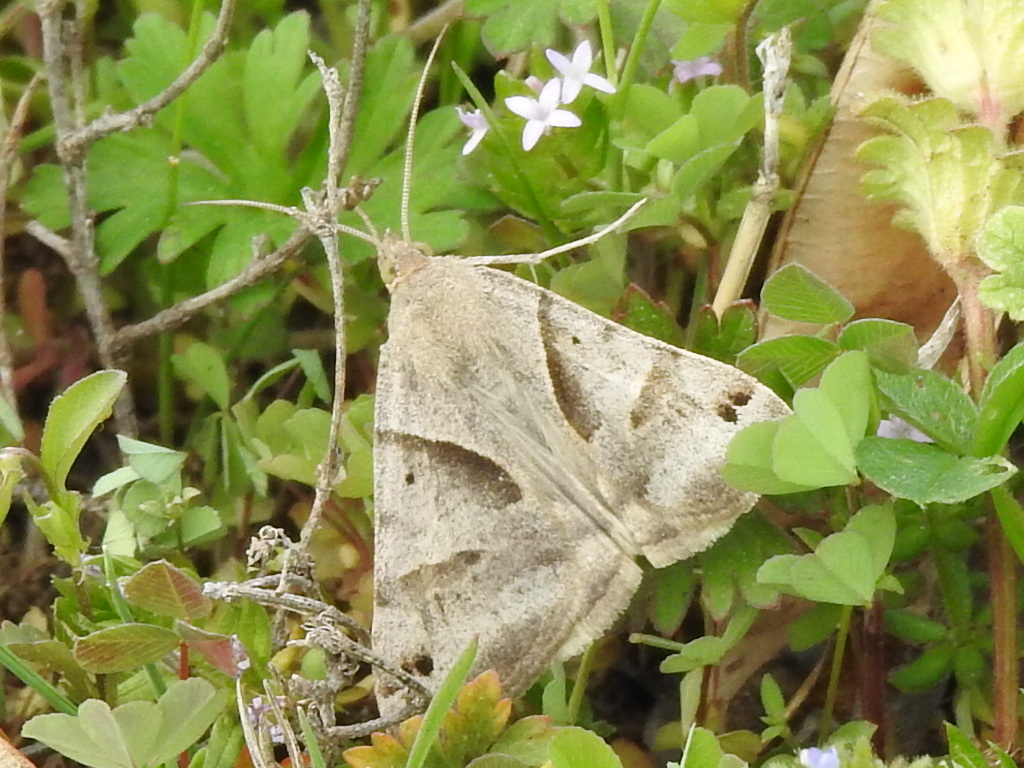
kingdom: Animalia
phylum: Arthropoda
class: Insecta
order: Lepidoptera
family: Erebidae
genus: Caenurgina
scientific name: Caenurgina erechtea
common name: Forage looper moth
